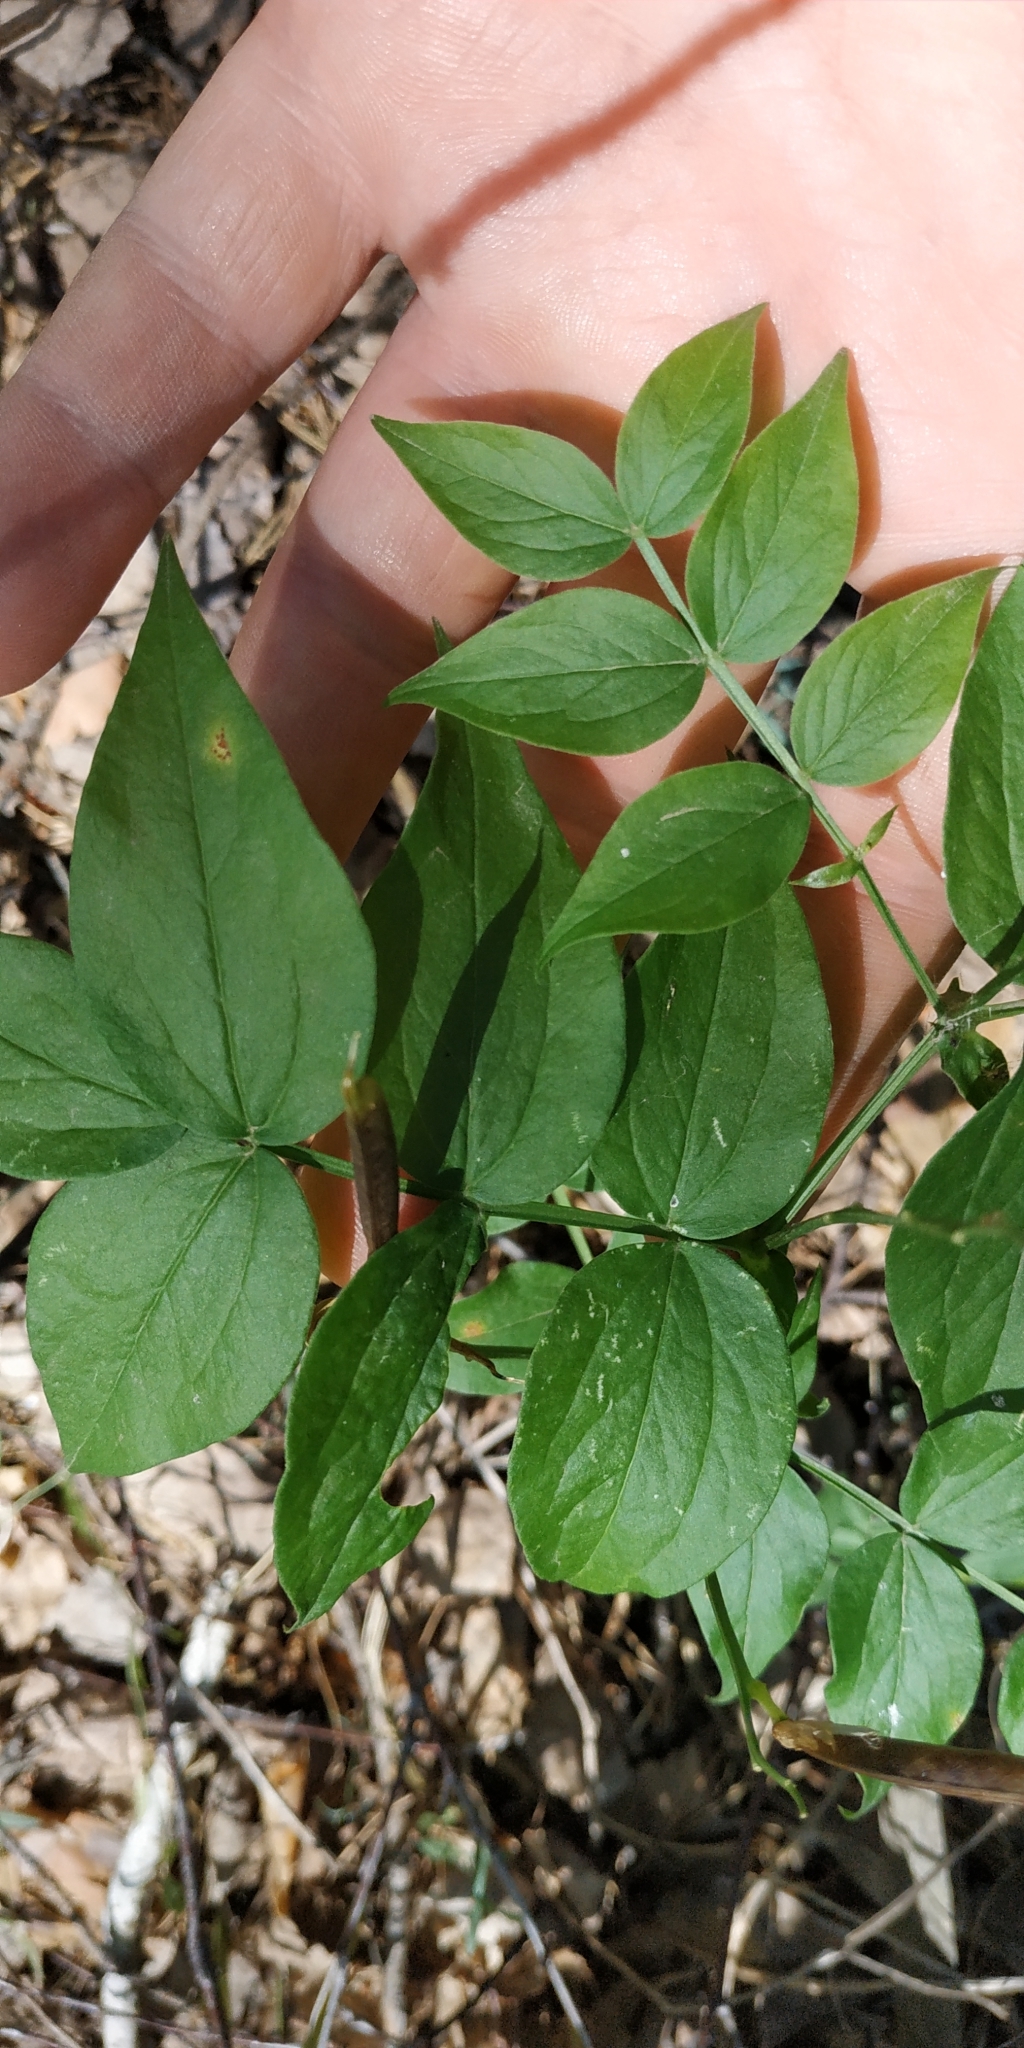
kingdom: Plantae
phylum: Tracheophyta
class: Magnoliopsida
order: Fabales
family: Fabaceae
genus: Lathyrus
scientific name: Lathyrus vernus
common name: Spring pea
